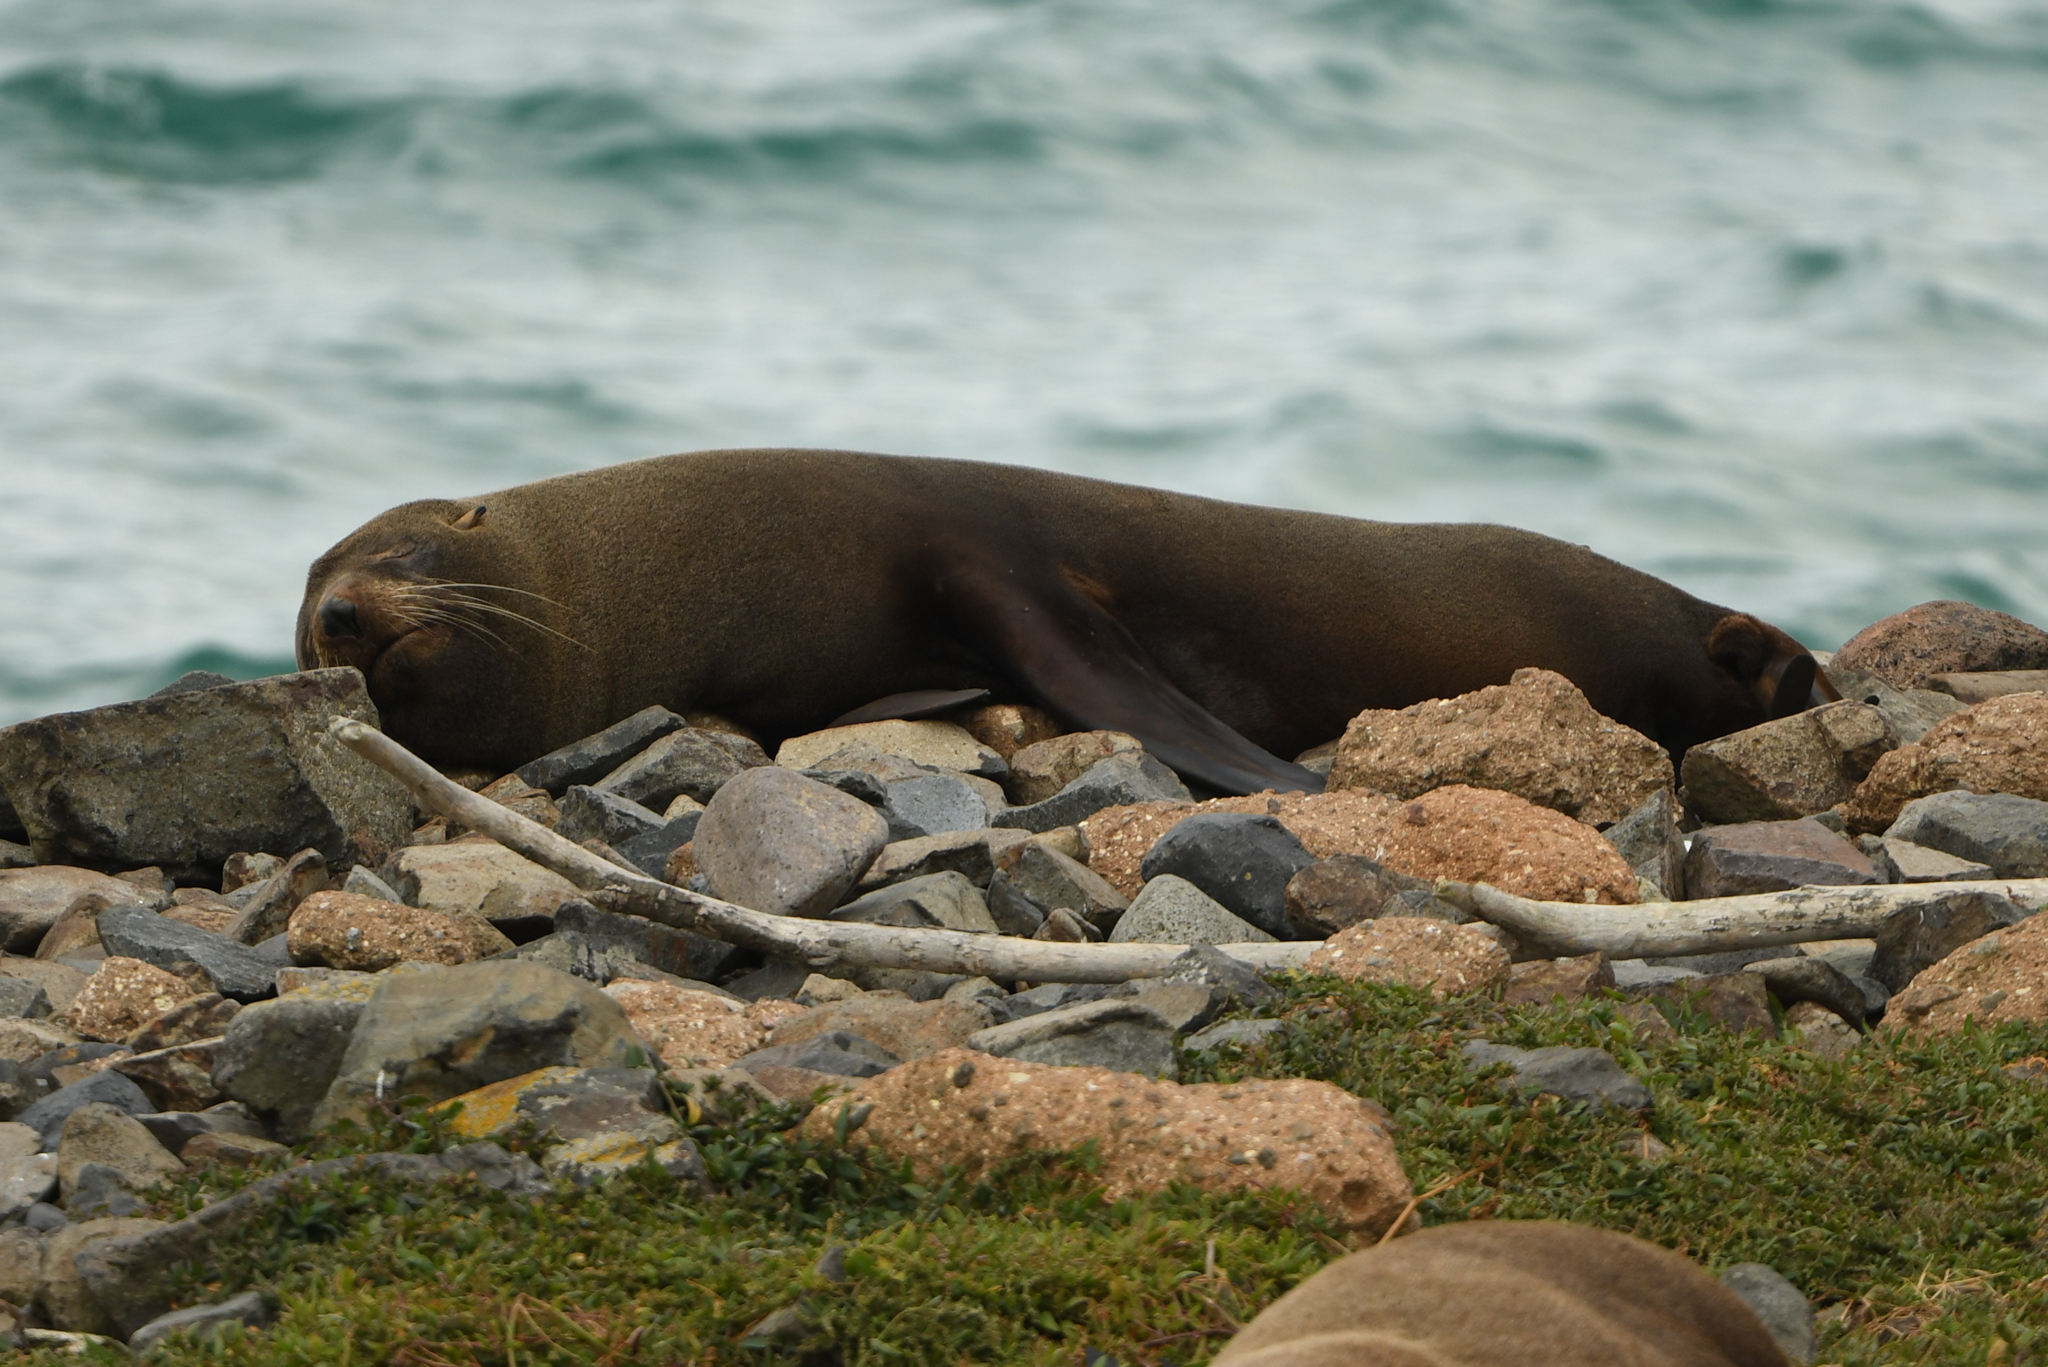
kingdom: Animalia
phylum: Chordata
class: Mammalia
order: Carnivora
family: Otariidae
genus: Arctocephalus
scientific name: Arctocephalus forsteri
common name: New zealand fur seal
